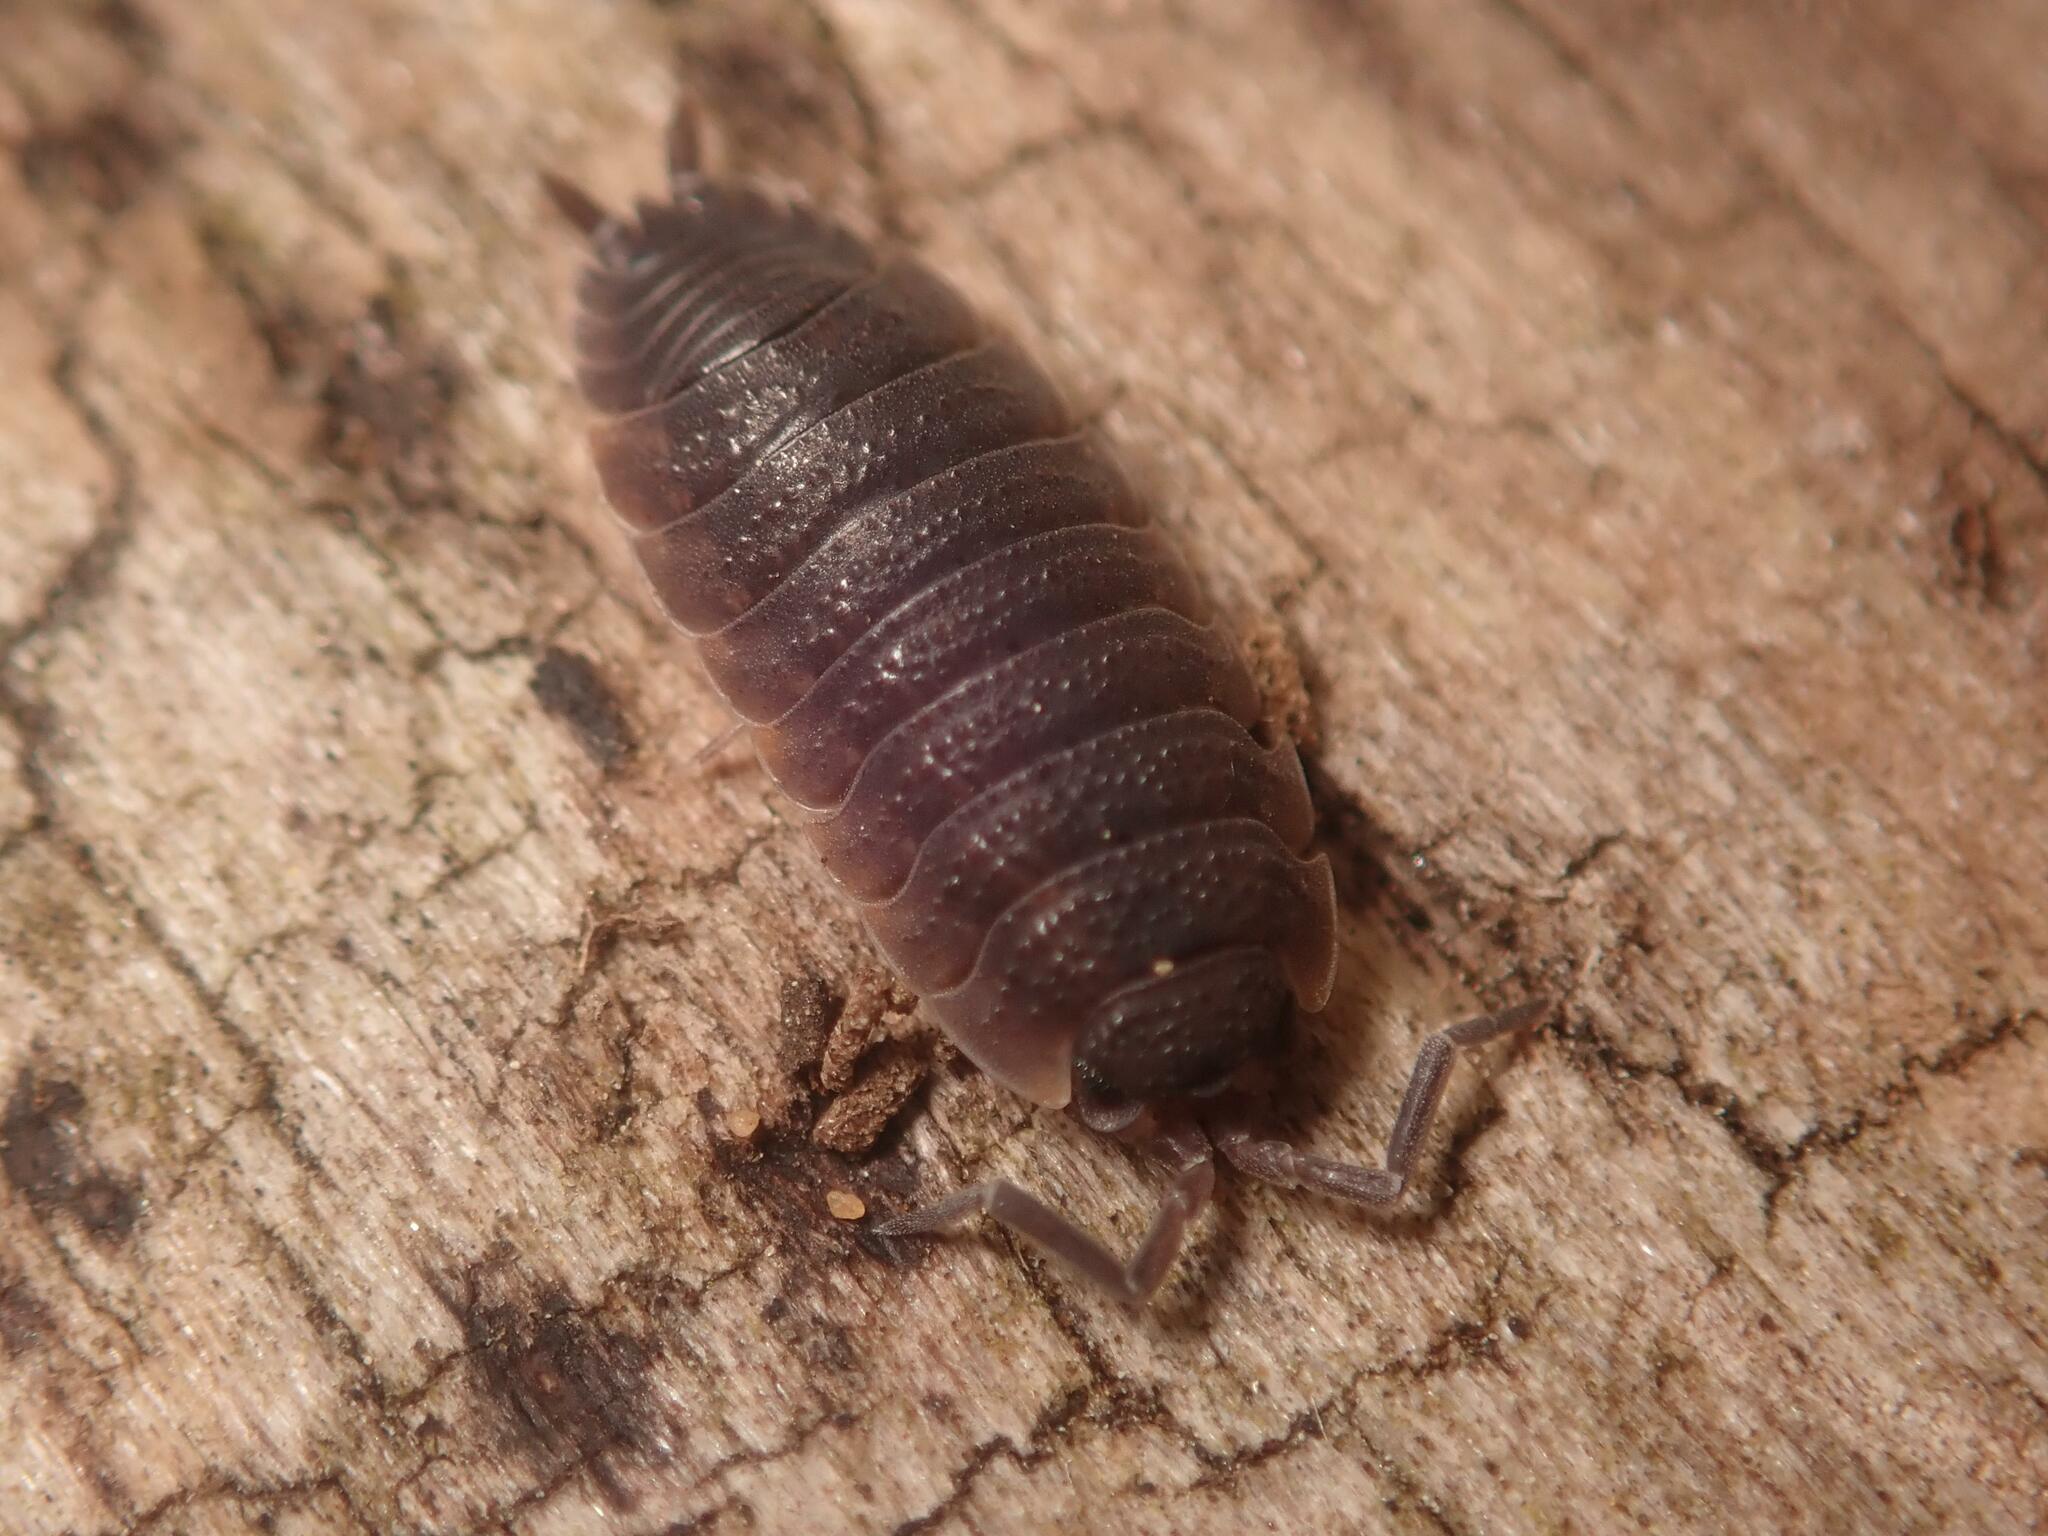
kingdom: Animalia
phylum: Arthropoda
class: Malacostraca
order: Isopoda
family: Porcellionidae
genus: Porcellio
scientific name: Porcellio scaber
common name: Common rough woodlouse
